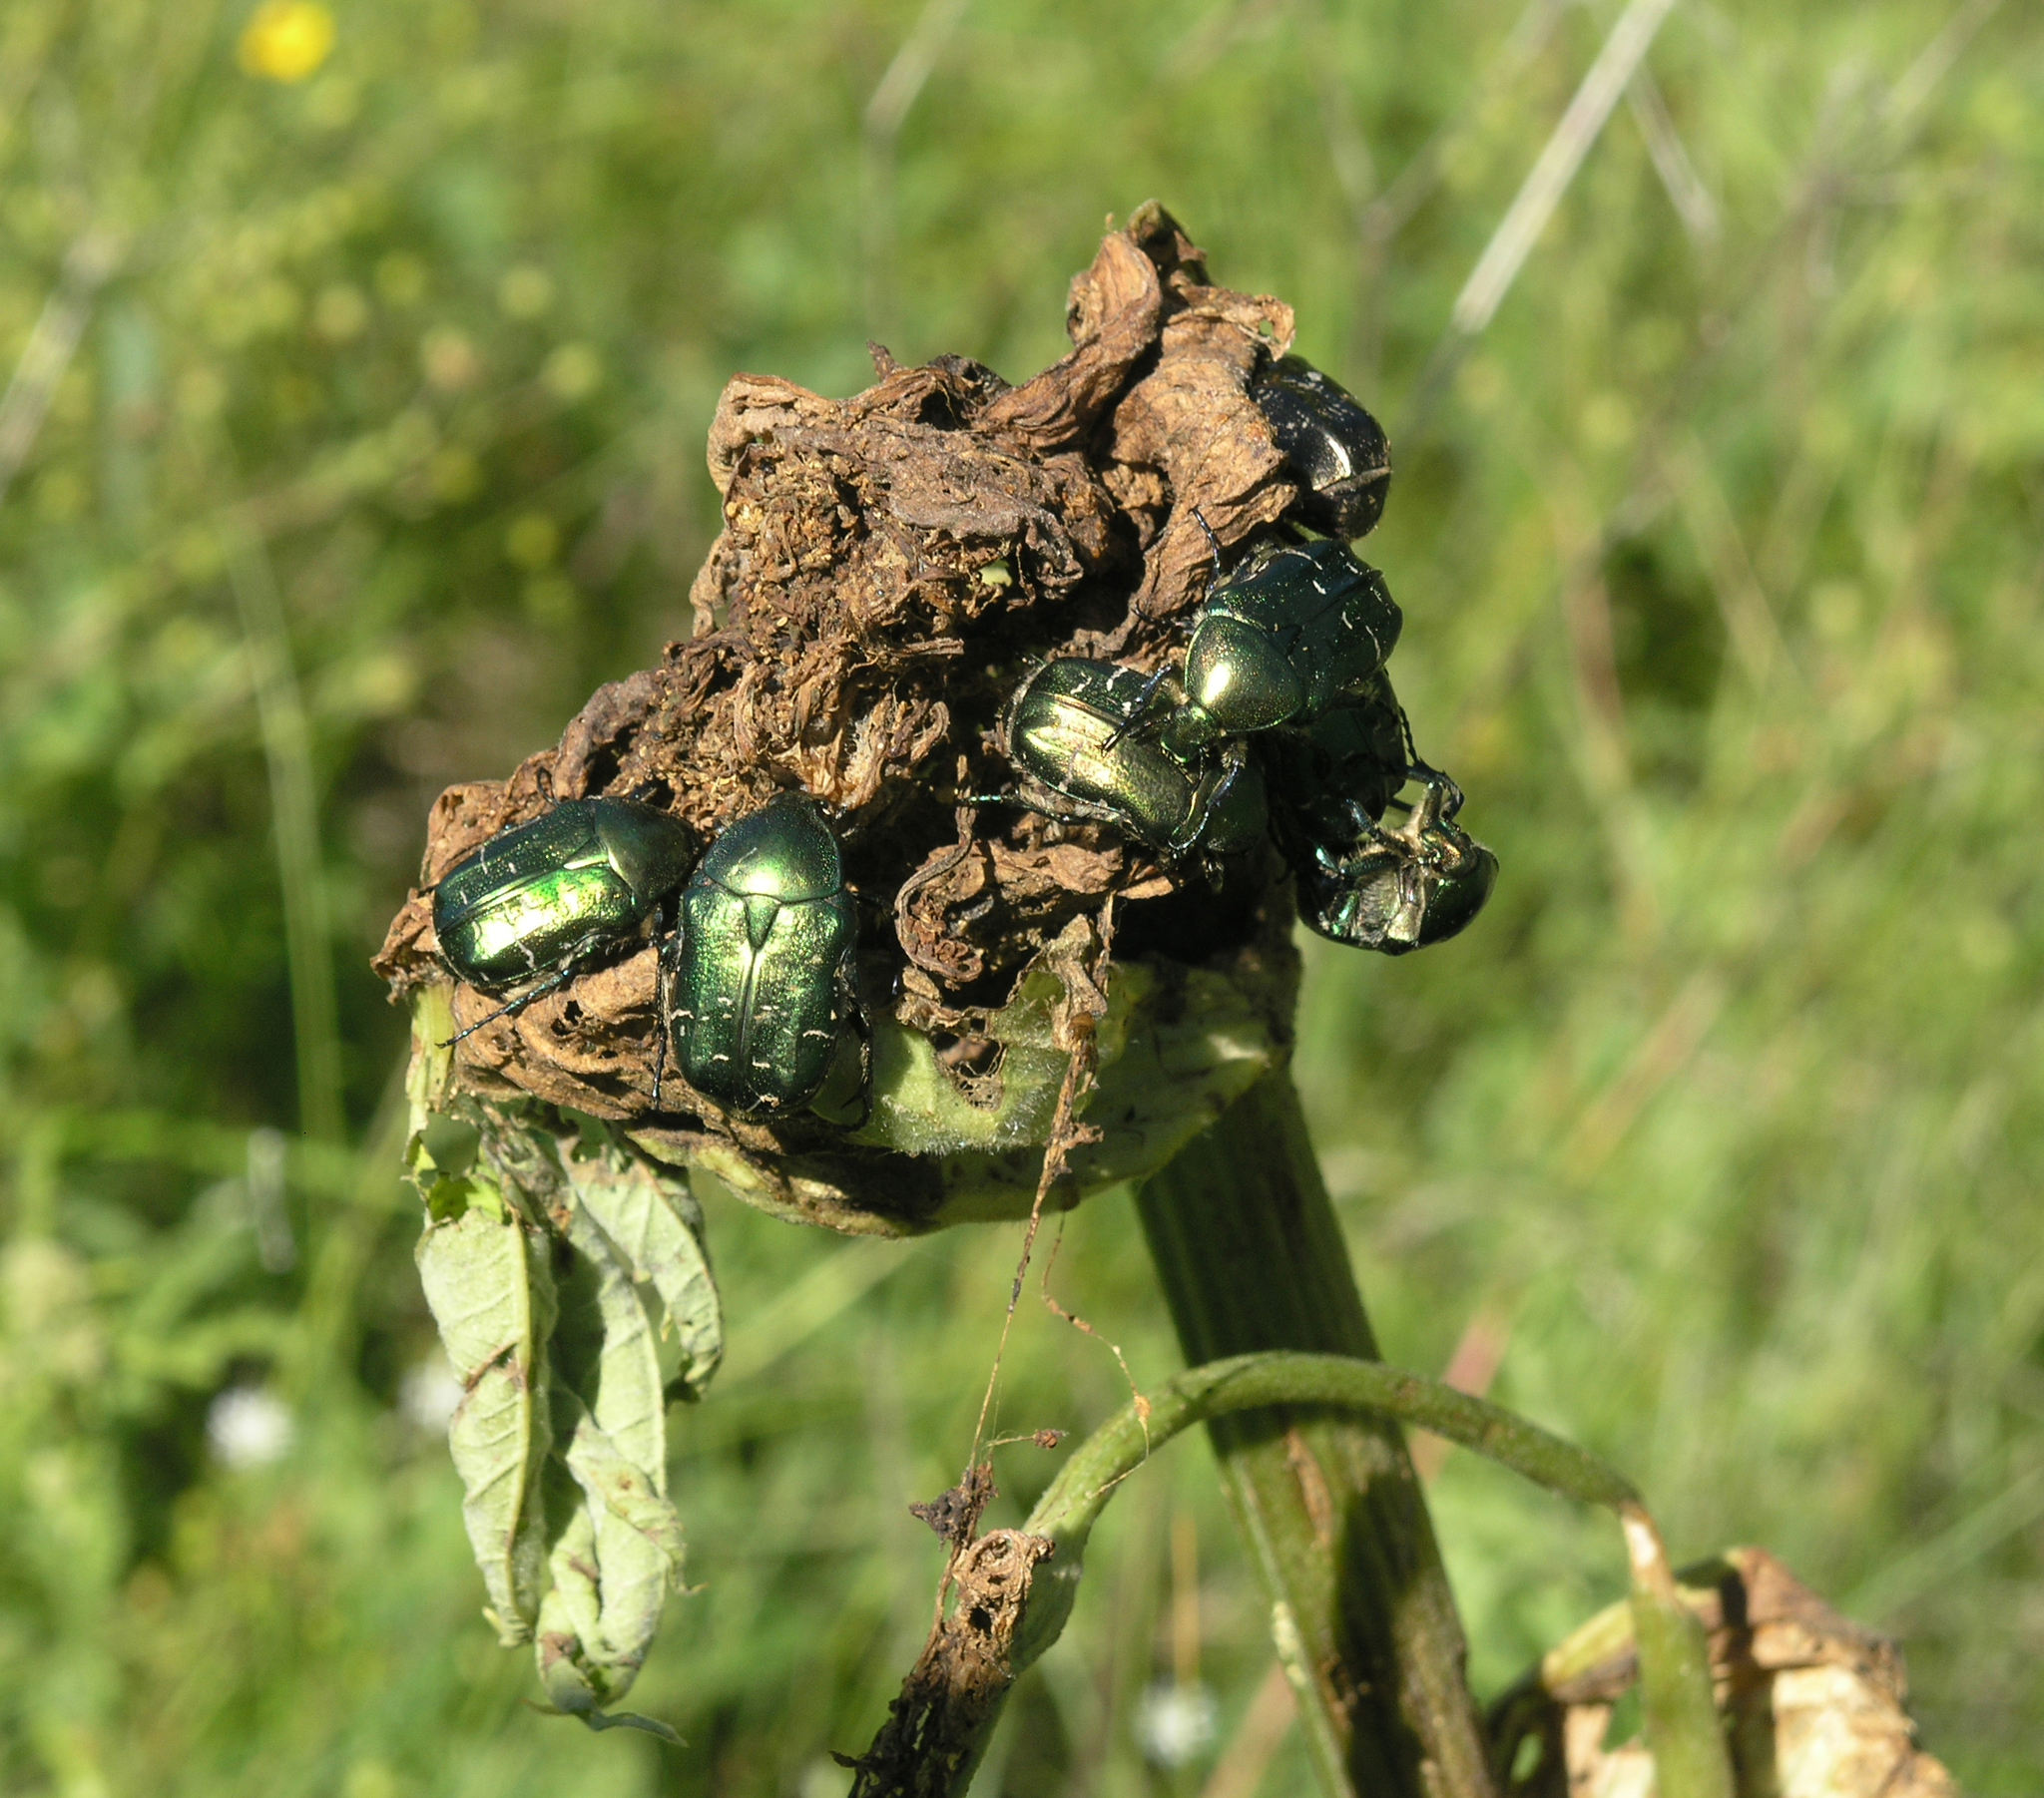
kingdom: Animalia
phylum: Arthropoda
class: Insecta
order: Coleoptera
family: Scarabaeidae
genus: Cetonia
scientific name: Cetonia aurata
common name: Rose chafer
